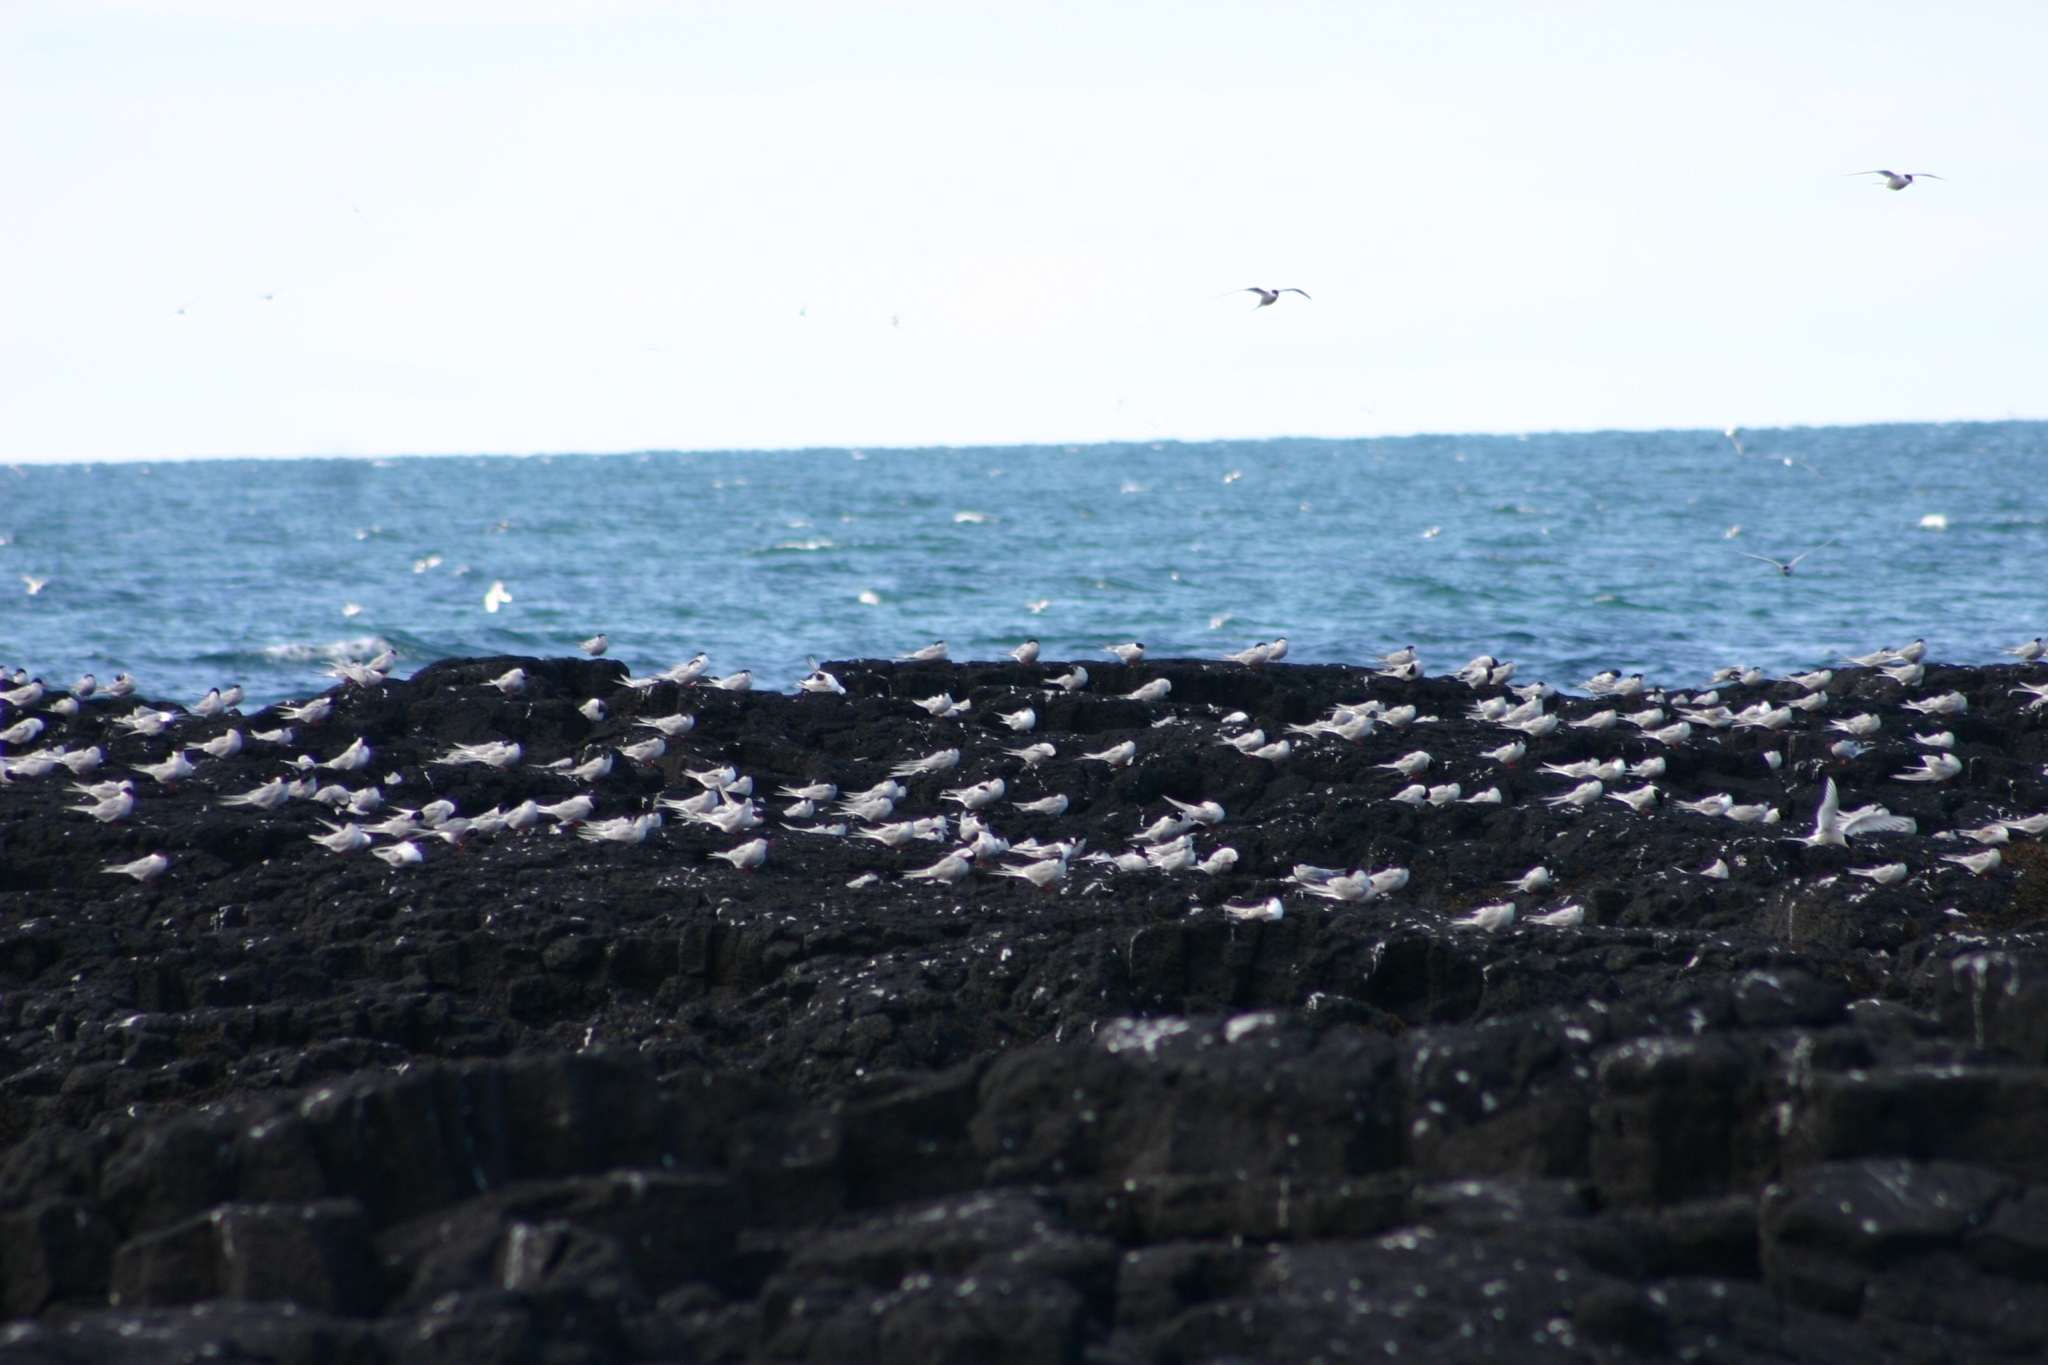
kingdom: Animalia
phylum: Chordata
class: Aves
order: Charadriiformes
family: Laridae
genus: Sterna
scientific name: Sterna paradisaea
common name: Arctic tern
